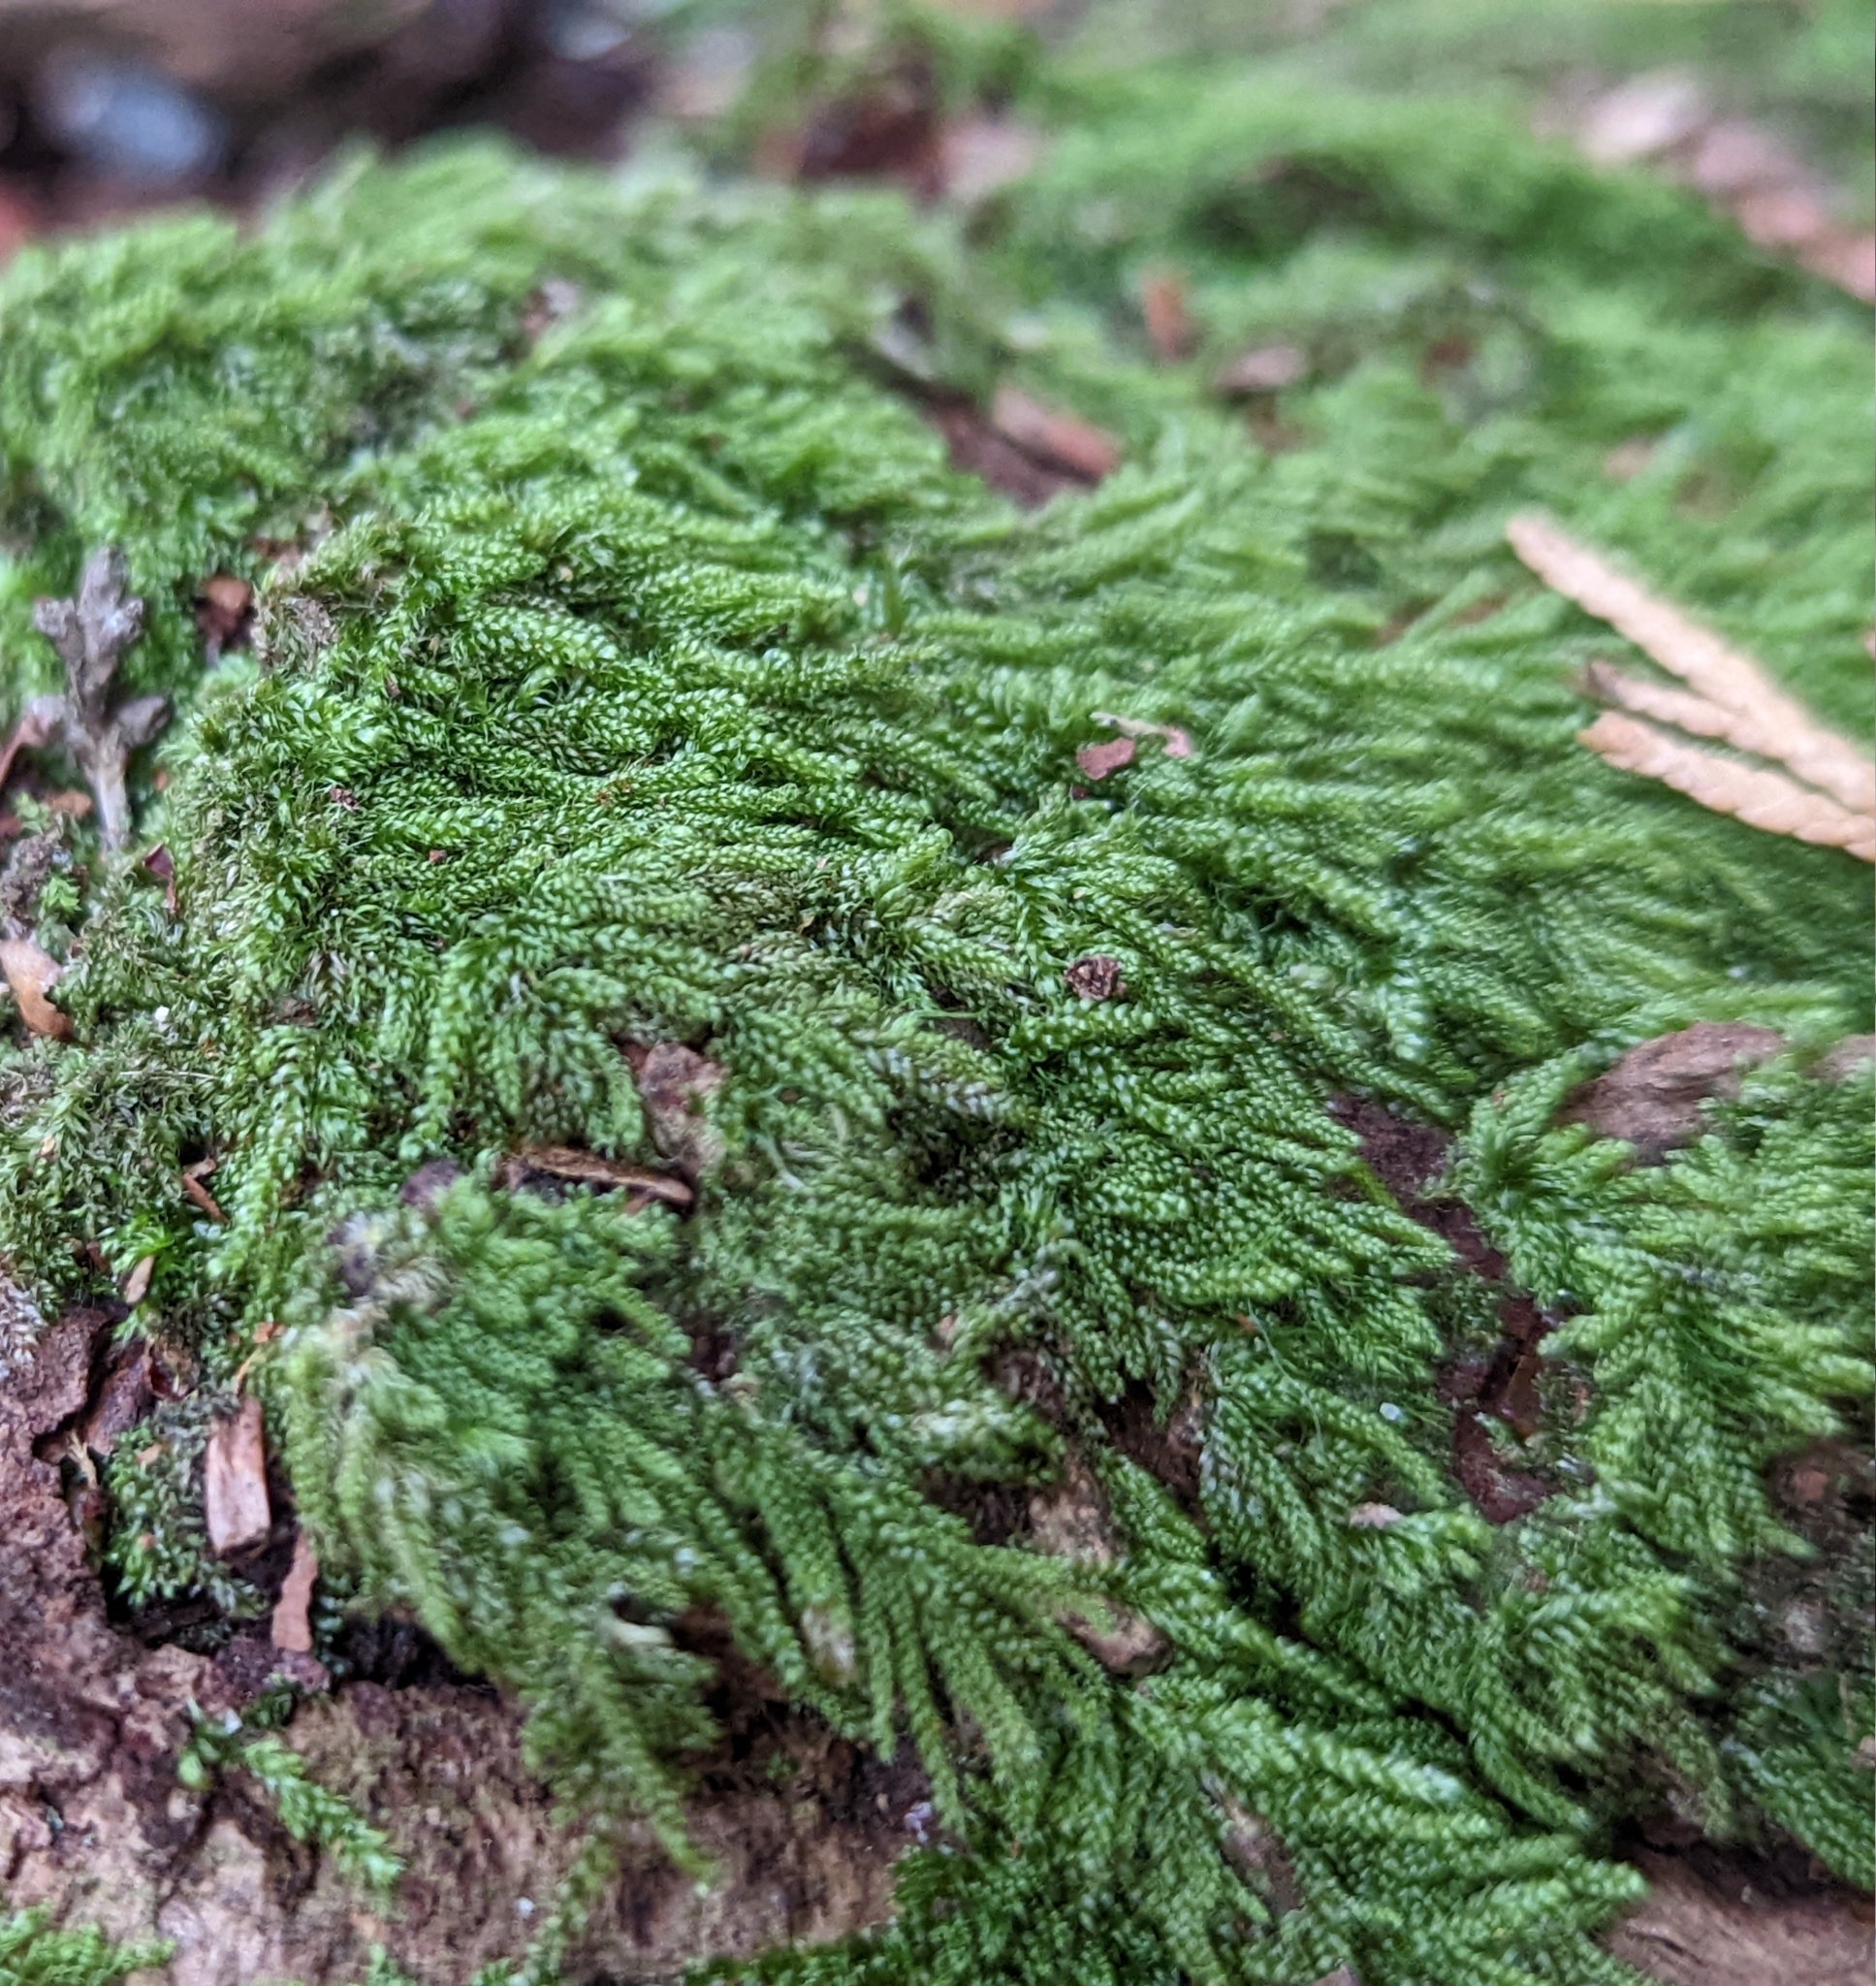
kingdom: Plantae
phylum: Bryophyta
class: Bryopsida
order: Hypnales
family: Pylaisiadelphaceae
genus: Trochophyllohypnum
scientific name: Trochophyllohypnum circinale
